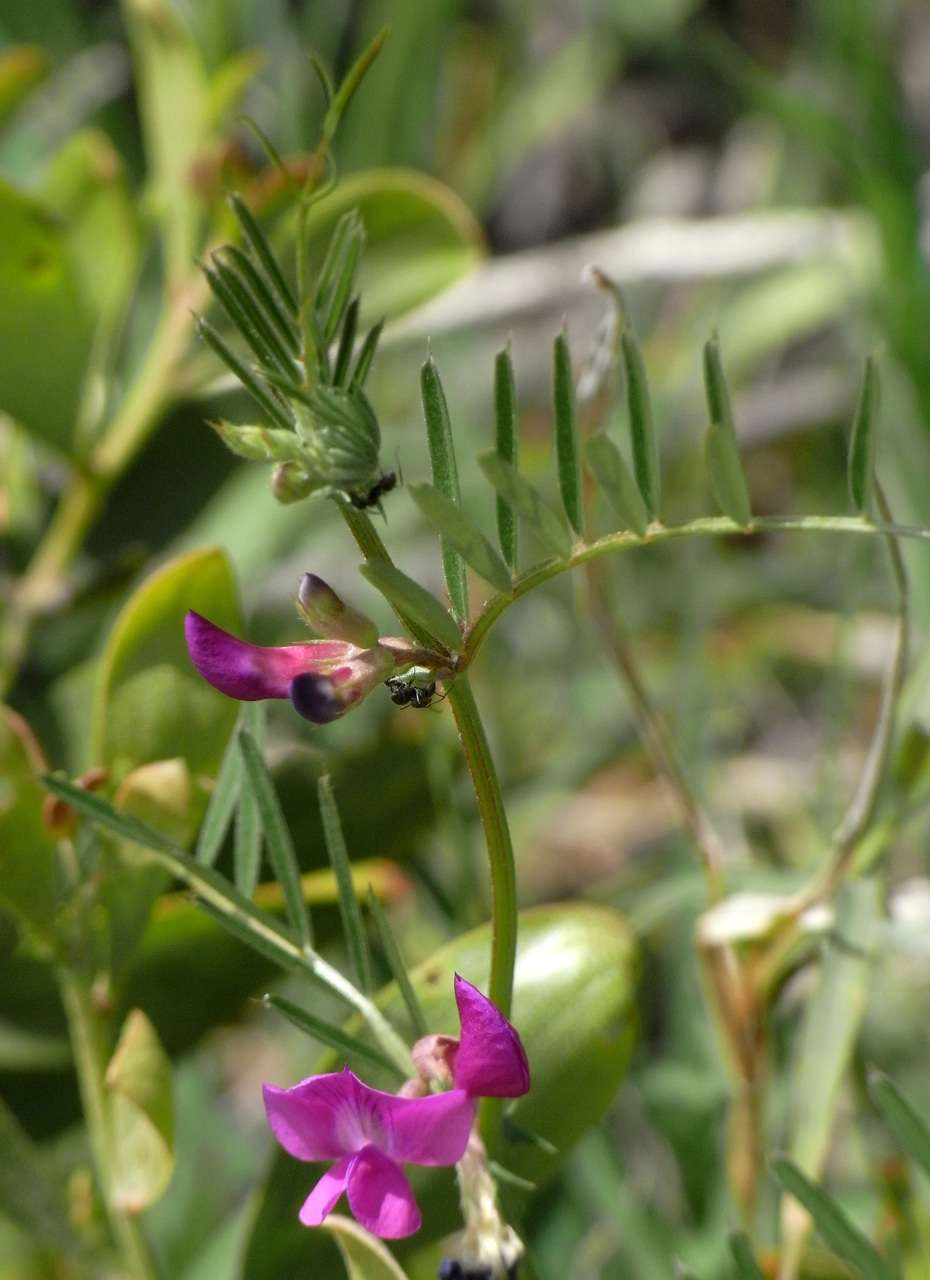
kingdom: Plantae
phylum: Tracheophyta
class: Magnoliopsida
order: Fabales
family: Fabaceae
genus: Vicia
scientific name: Vicia sativa
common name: Garden vetch
